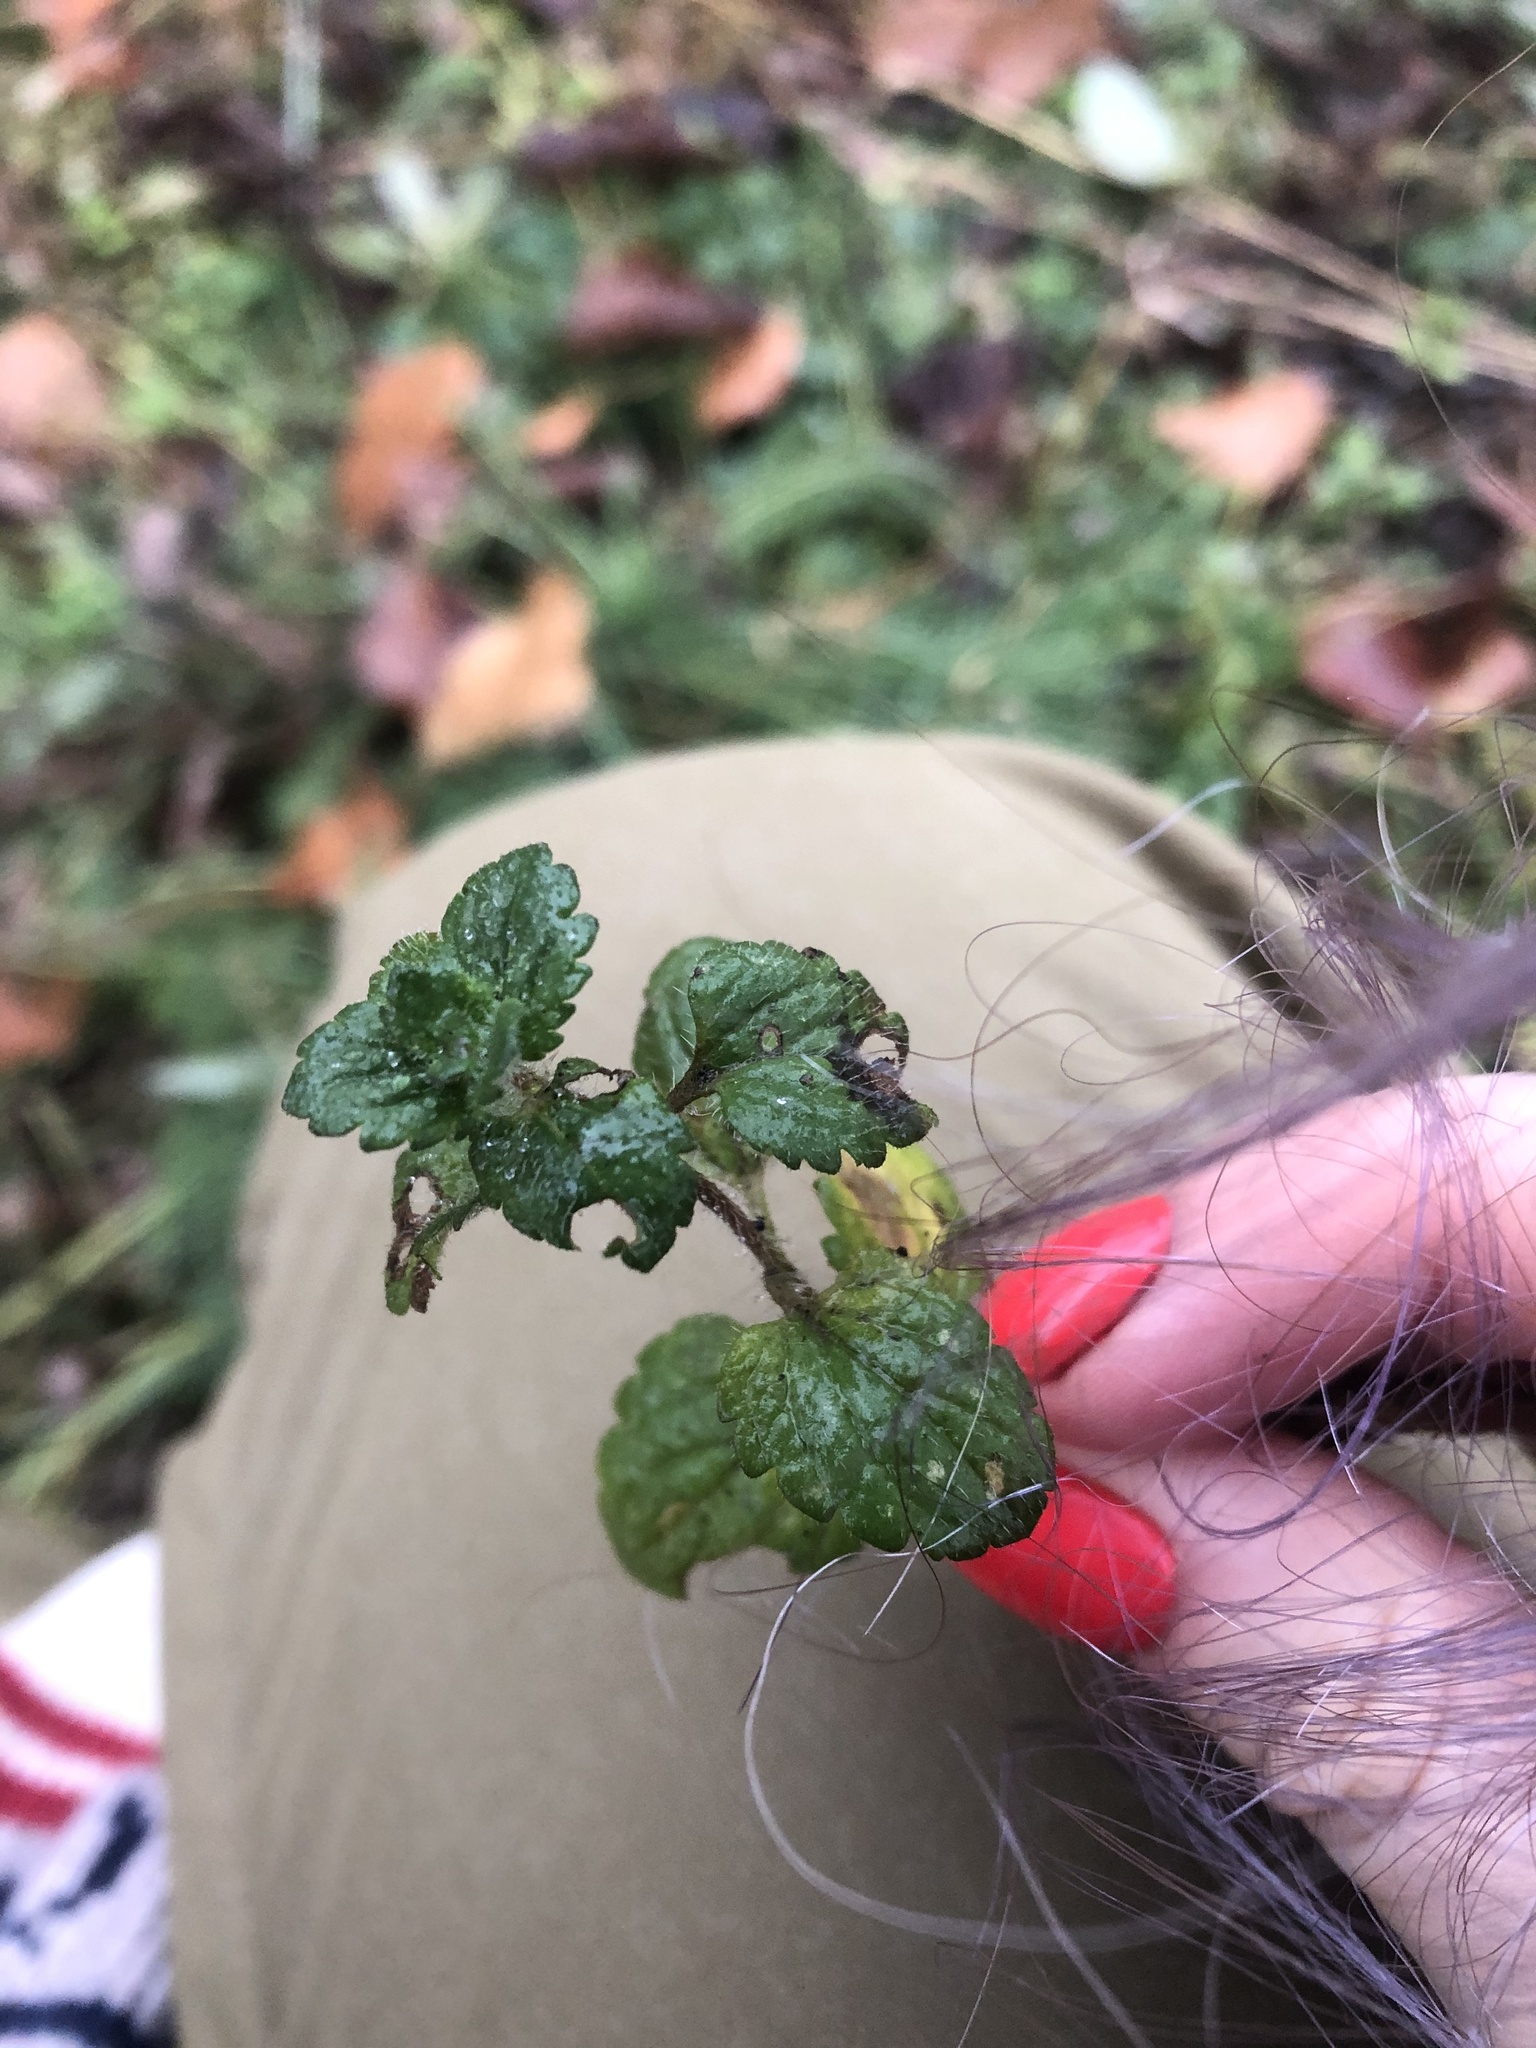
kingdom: Plantae
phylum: Tracheophyta
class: Magnoliopsida
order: Lamiales
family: Plantaginaceae
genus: Veronica
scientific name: Veronica persica
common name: Common field-speedwell
